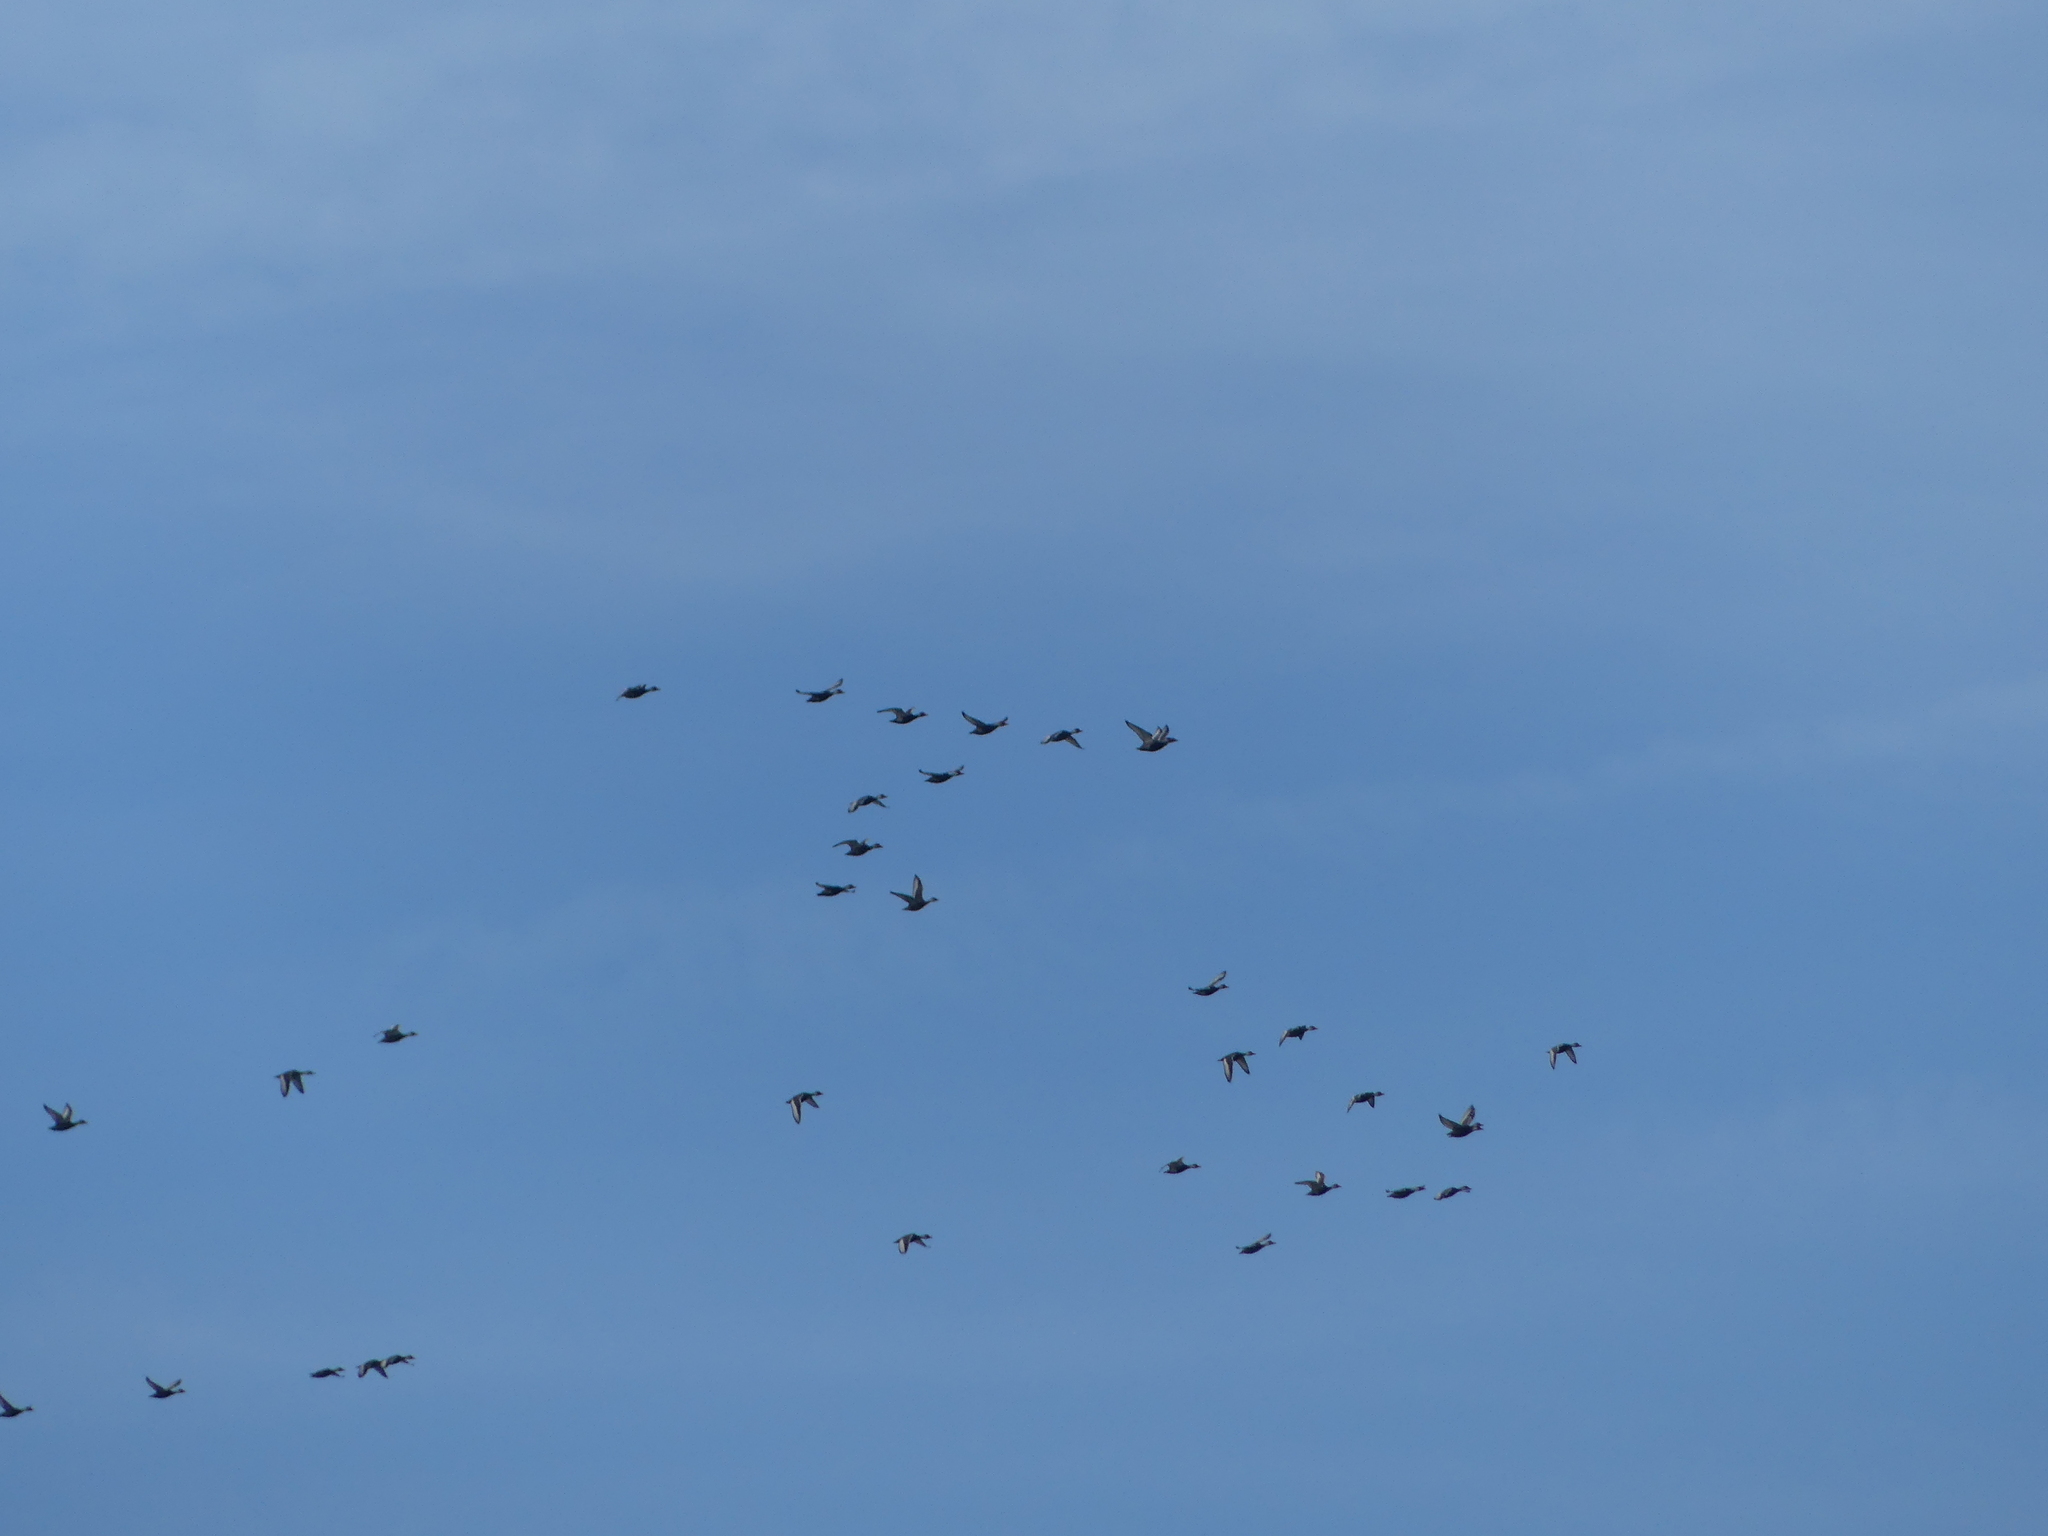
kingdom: Animalia
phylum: Chordata
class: Aves
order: Anseriformes
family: Anatidae
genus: Netta
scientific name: Netta rufina
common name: Red-crested pochard
